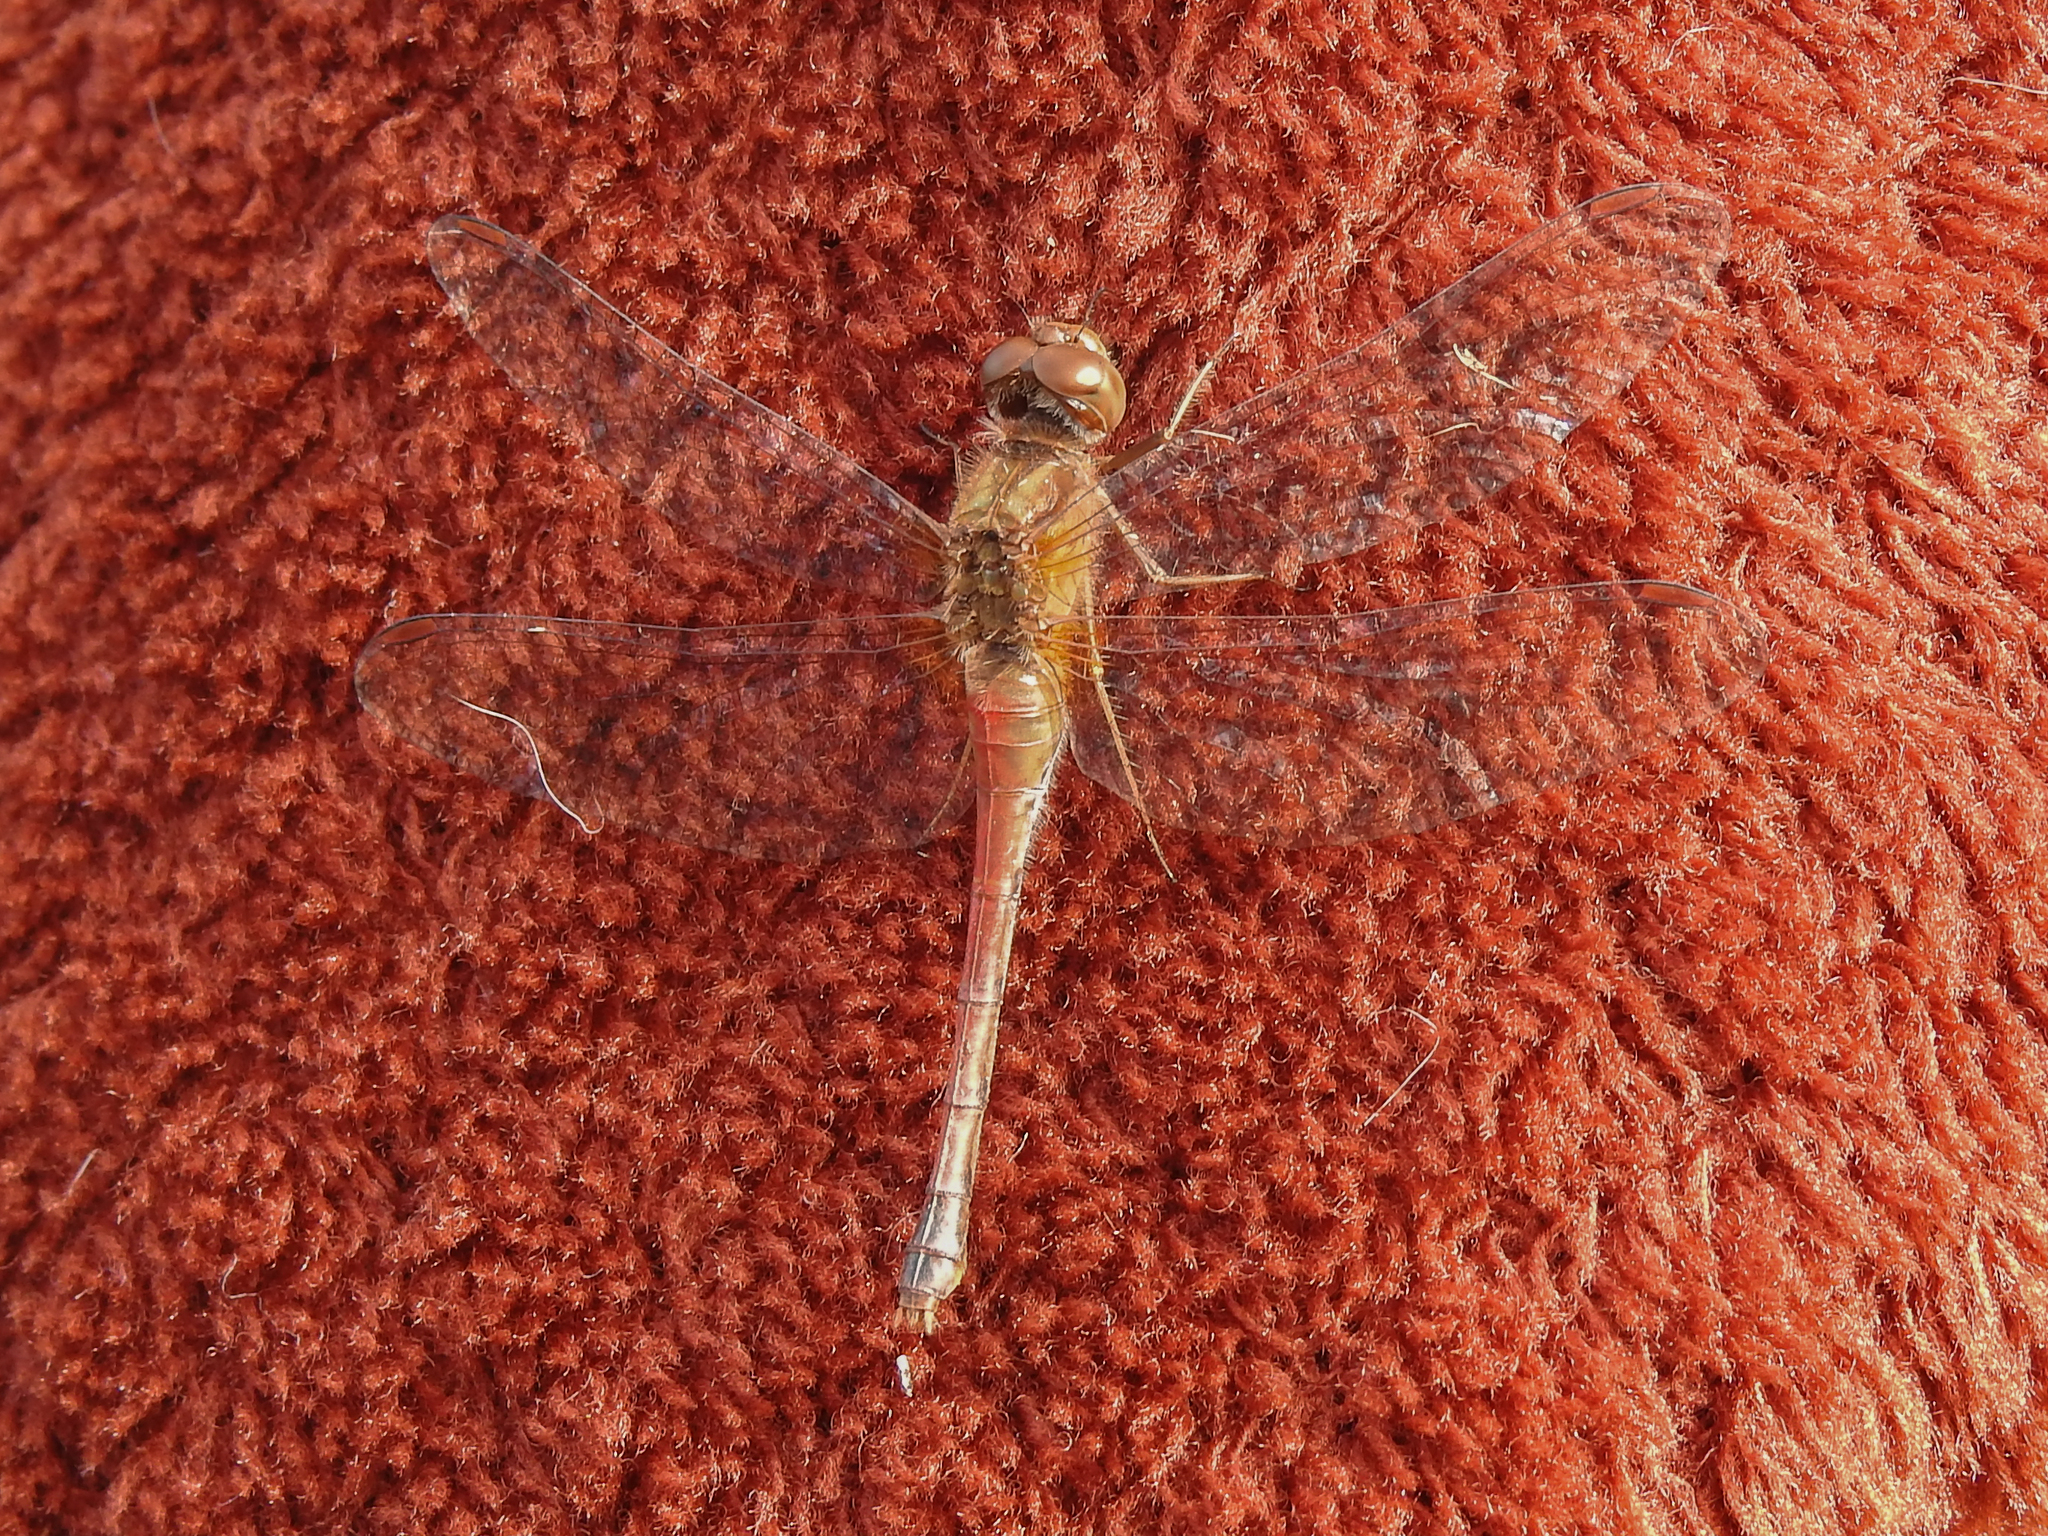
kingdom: Animalia
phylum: Arthropoda
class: Insecta
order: Odonata
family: Libellulidae
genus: Sympetrum
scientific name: Sympetrum vicinum
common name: Autumn meadowhawk
